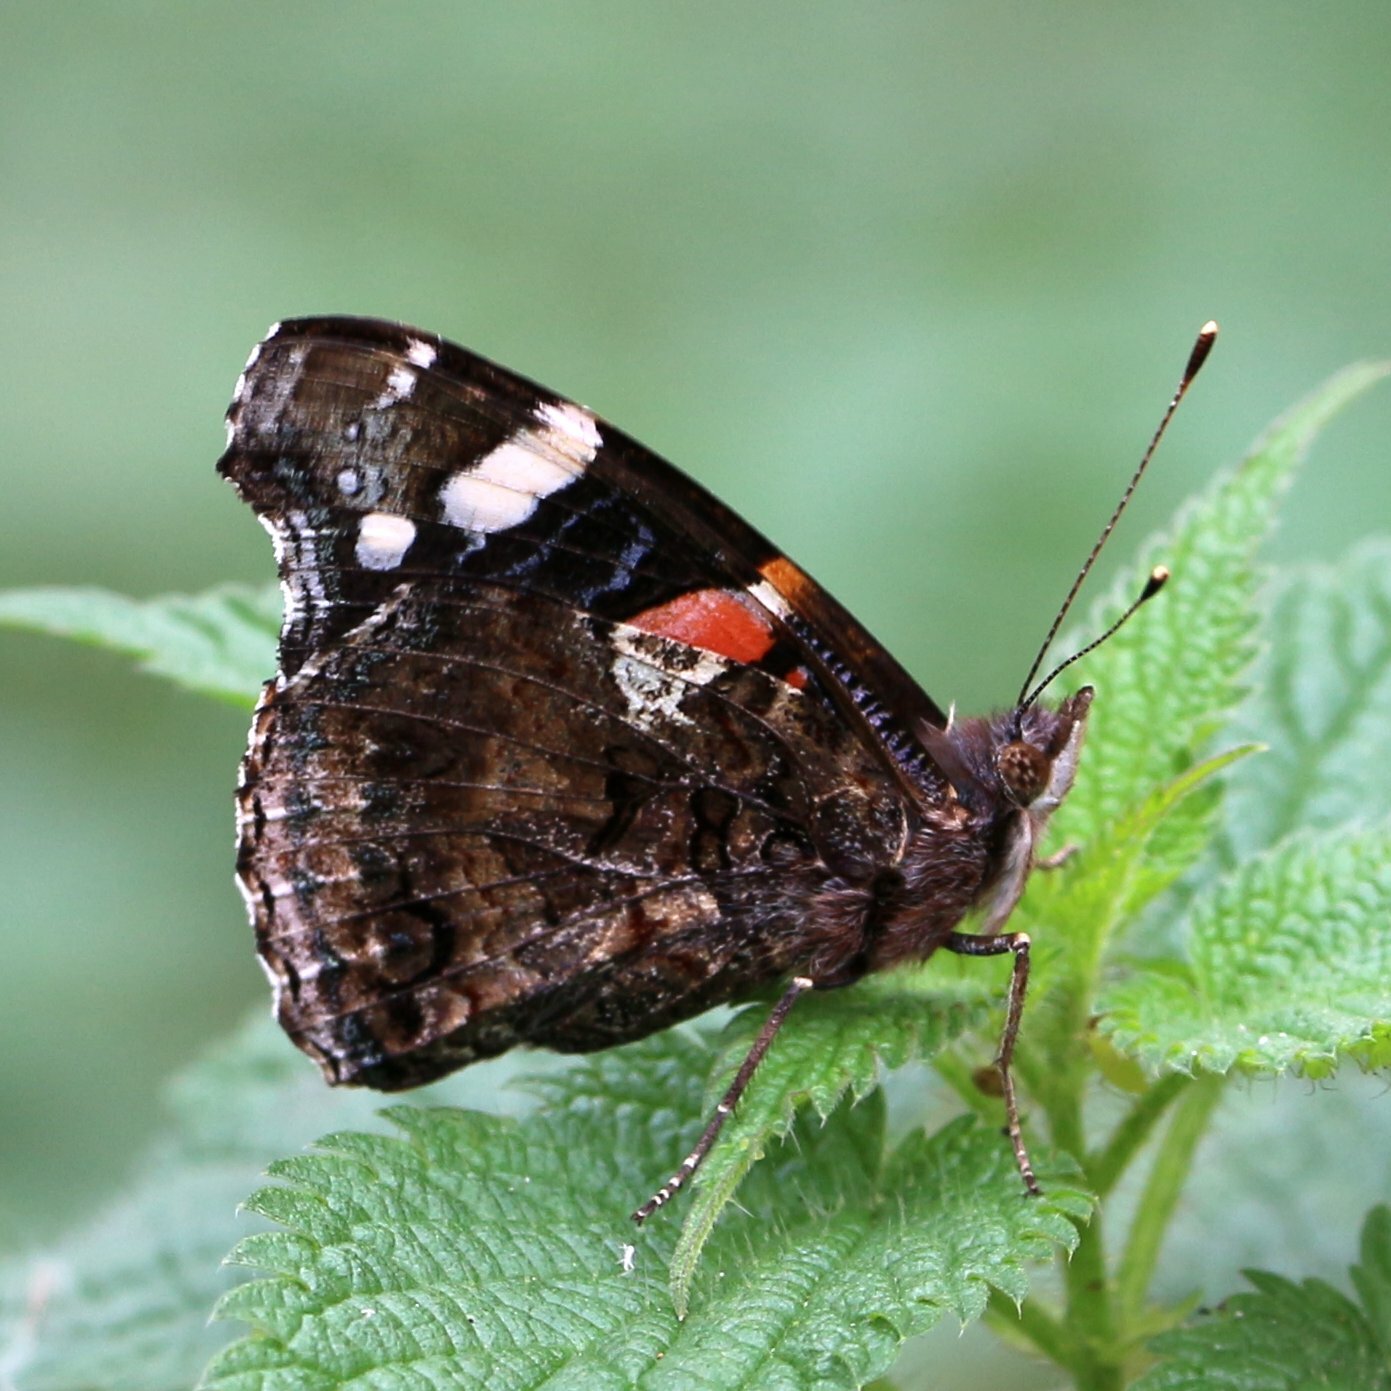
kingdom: Animalia
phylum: Arthropoda
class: Insecta
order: Lepidoptera
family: Nymphalidae
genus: Vanessa
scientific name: Vanessa atalanta
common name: Red admiral
